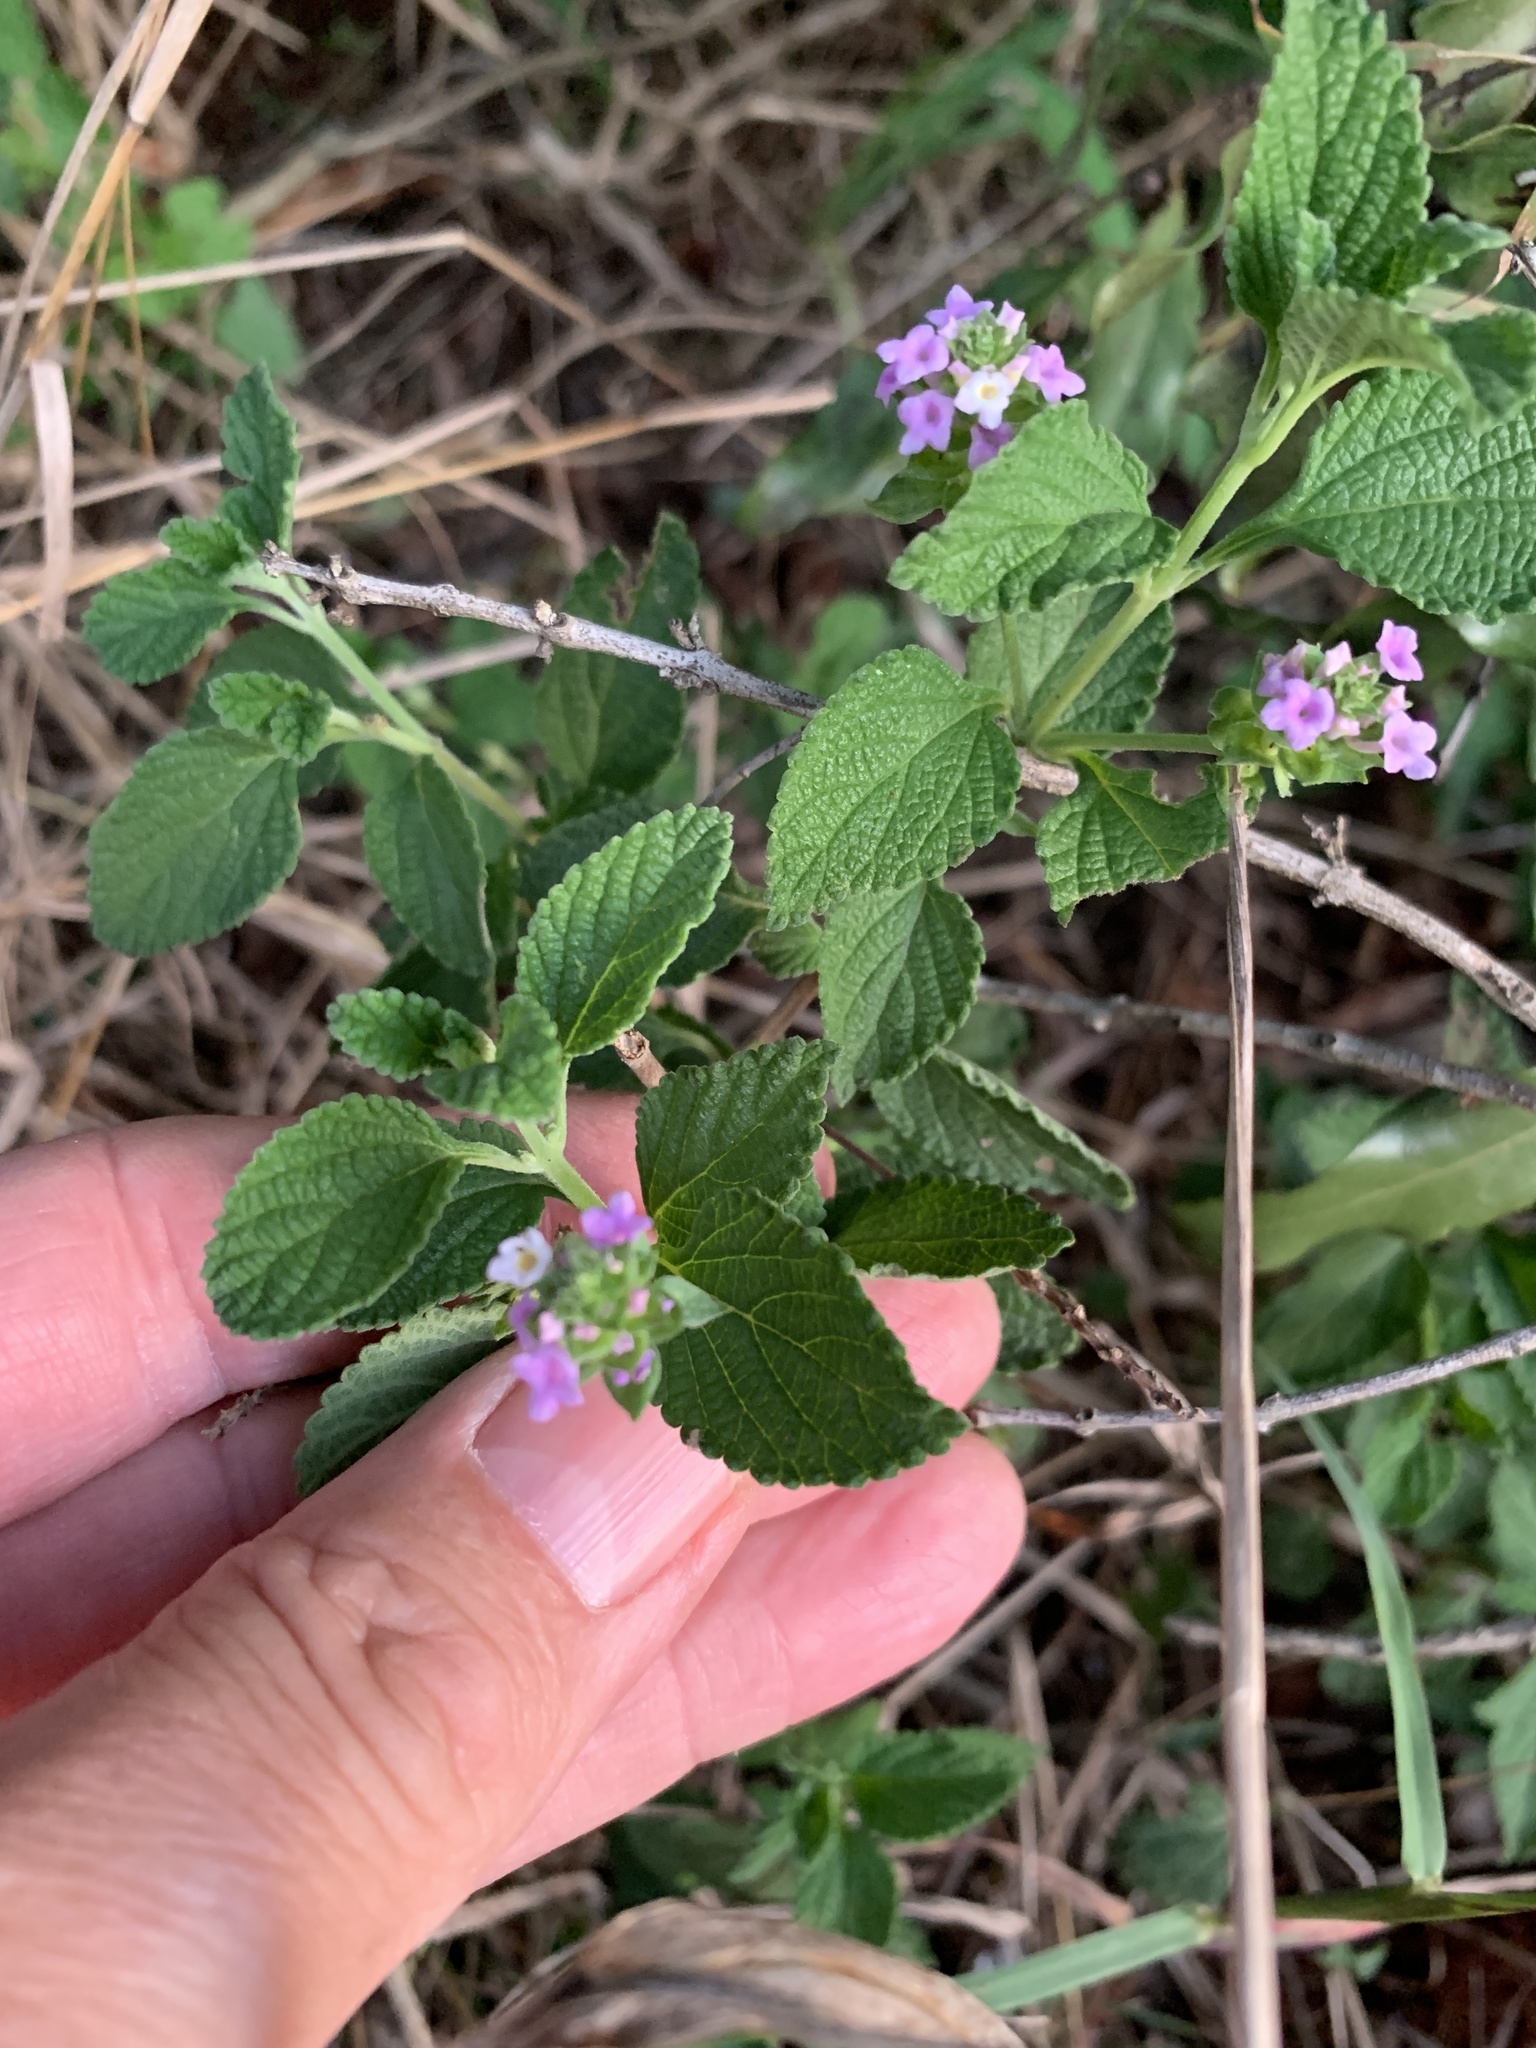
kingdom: Plantae
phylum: Tracheophyta
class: Magnoliopsida
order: Lamiales
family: Verbenaceae
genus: Lantana
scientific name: Lantana rugosa
